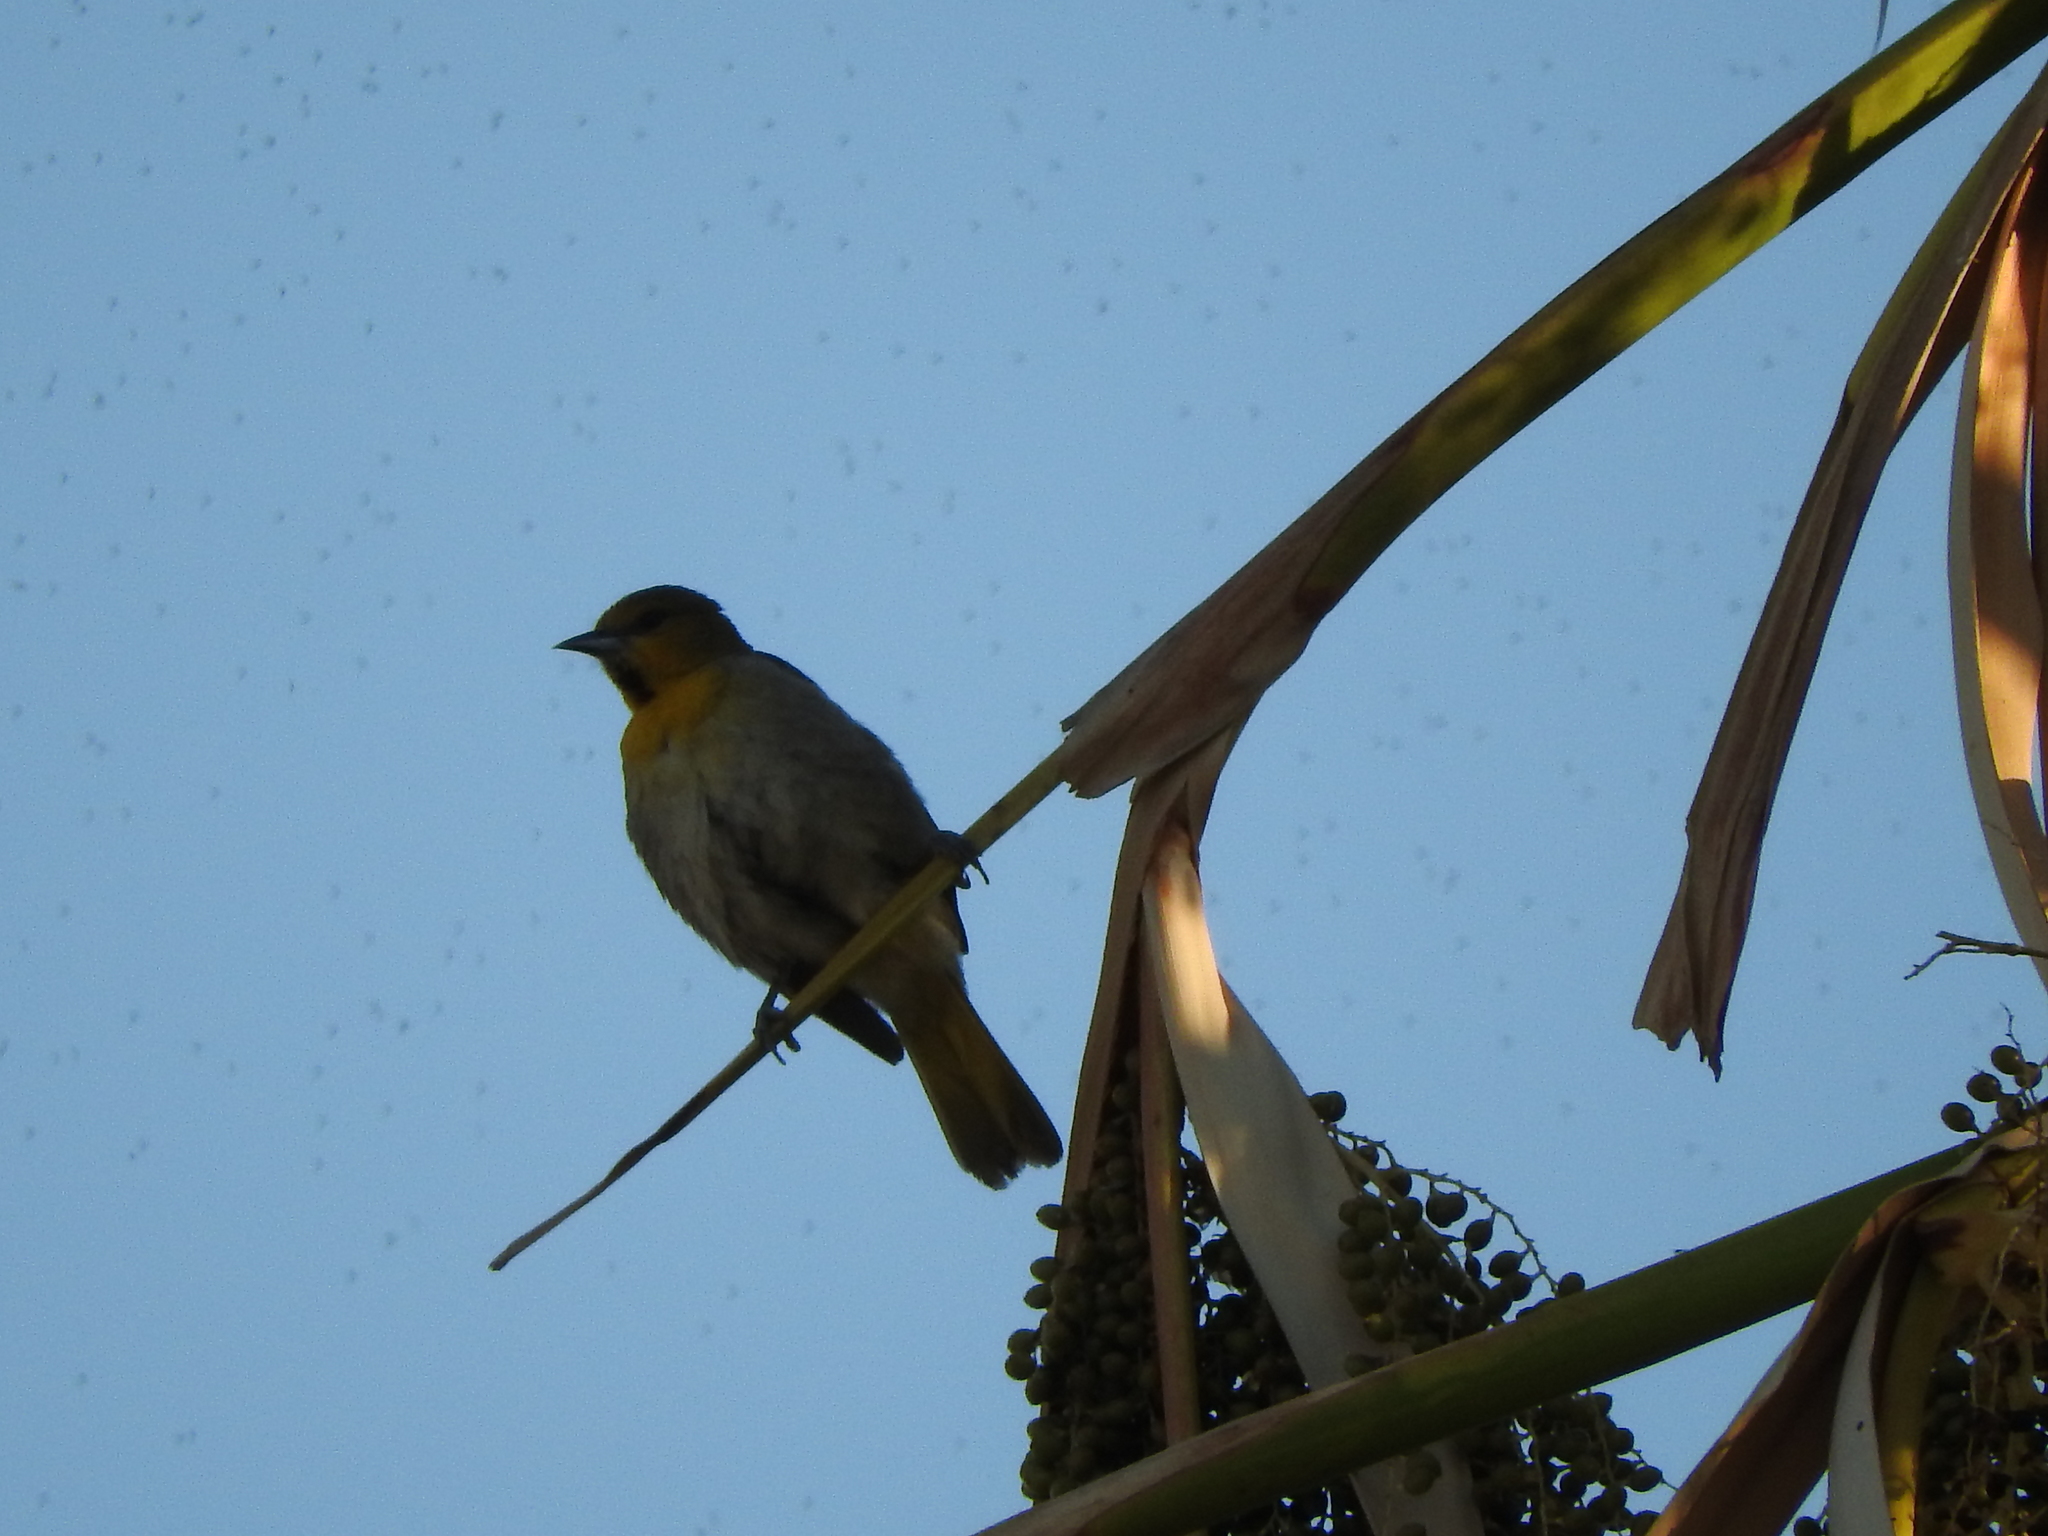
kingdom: Animalia
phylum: Chordata
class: Aves
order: Passeriformes
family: Icteridae
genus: Icterus
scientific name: Icterus abeillei
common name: Black-backed oriole
